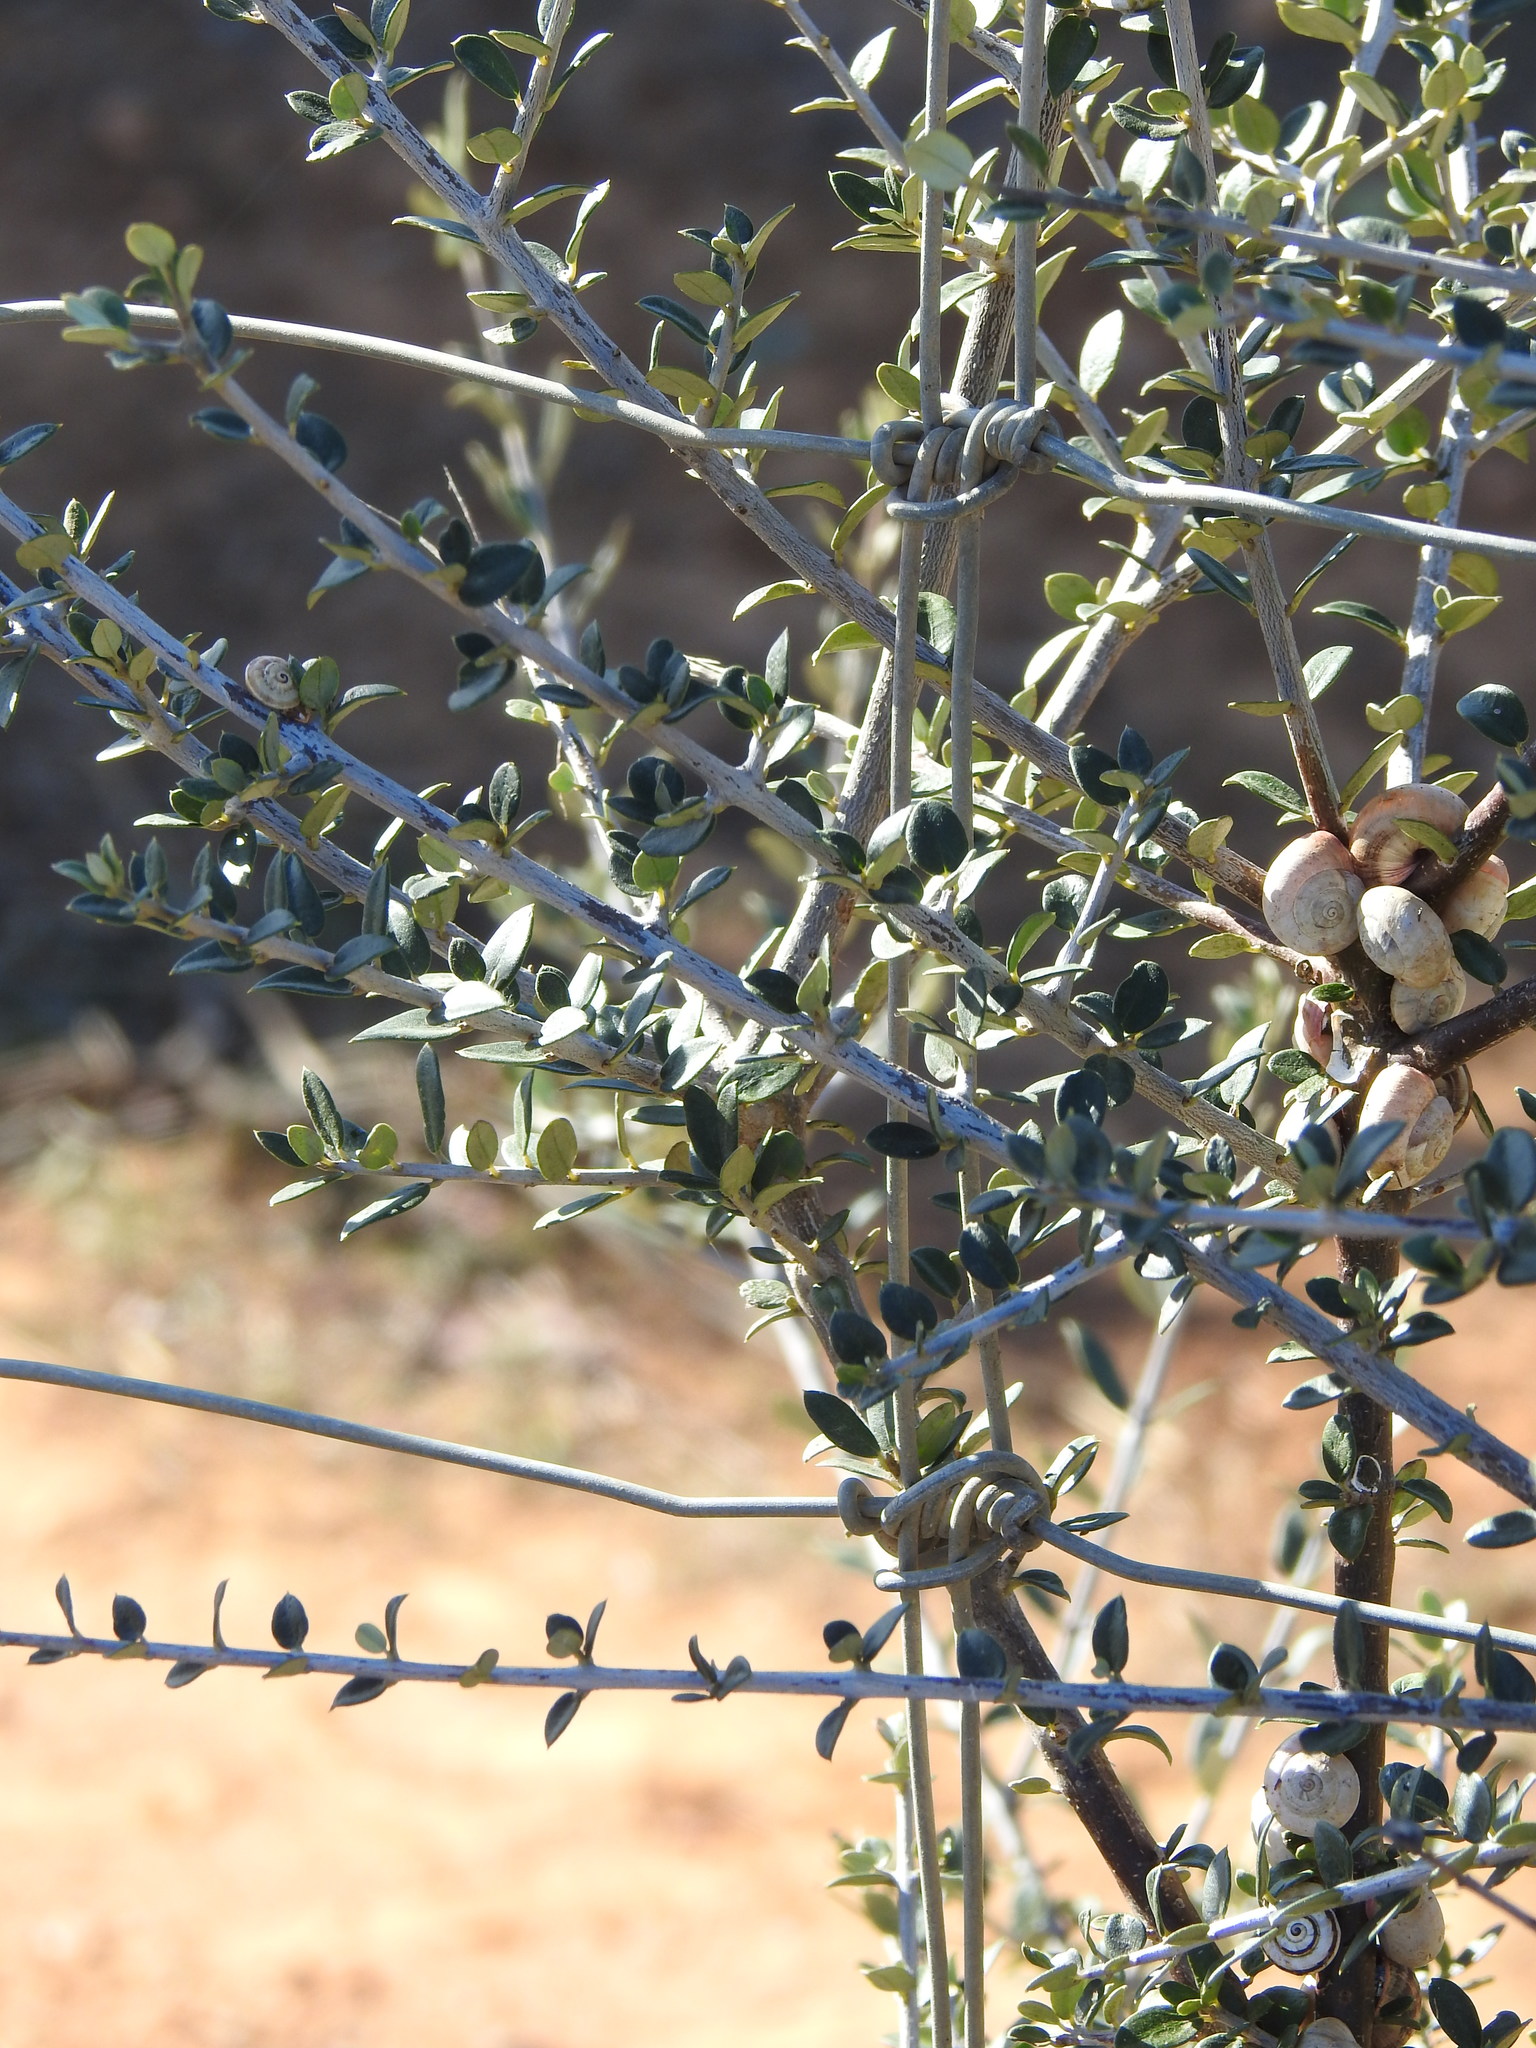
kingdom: Plantae
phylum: Tracheophyta
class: Magnoliopsida
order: Lamiales
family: Oleaceae
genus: Olea
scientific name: Olea europaea
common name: Olive
